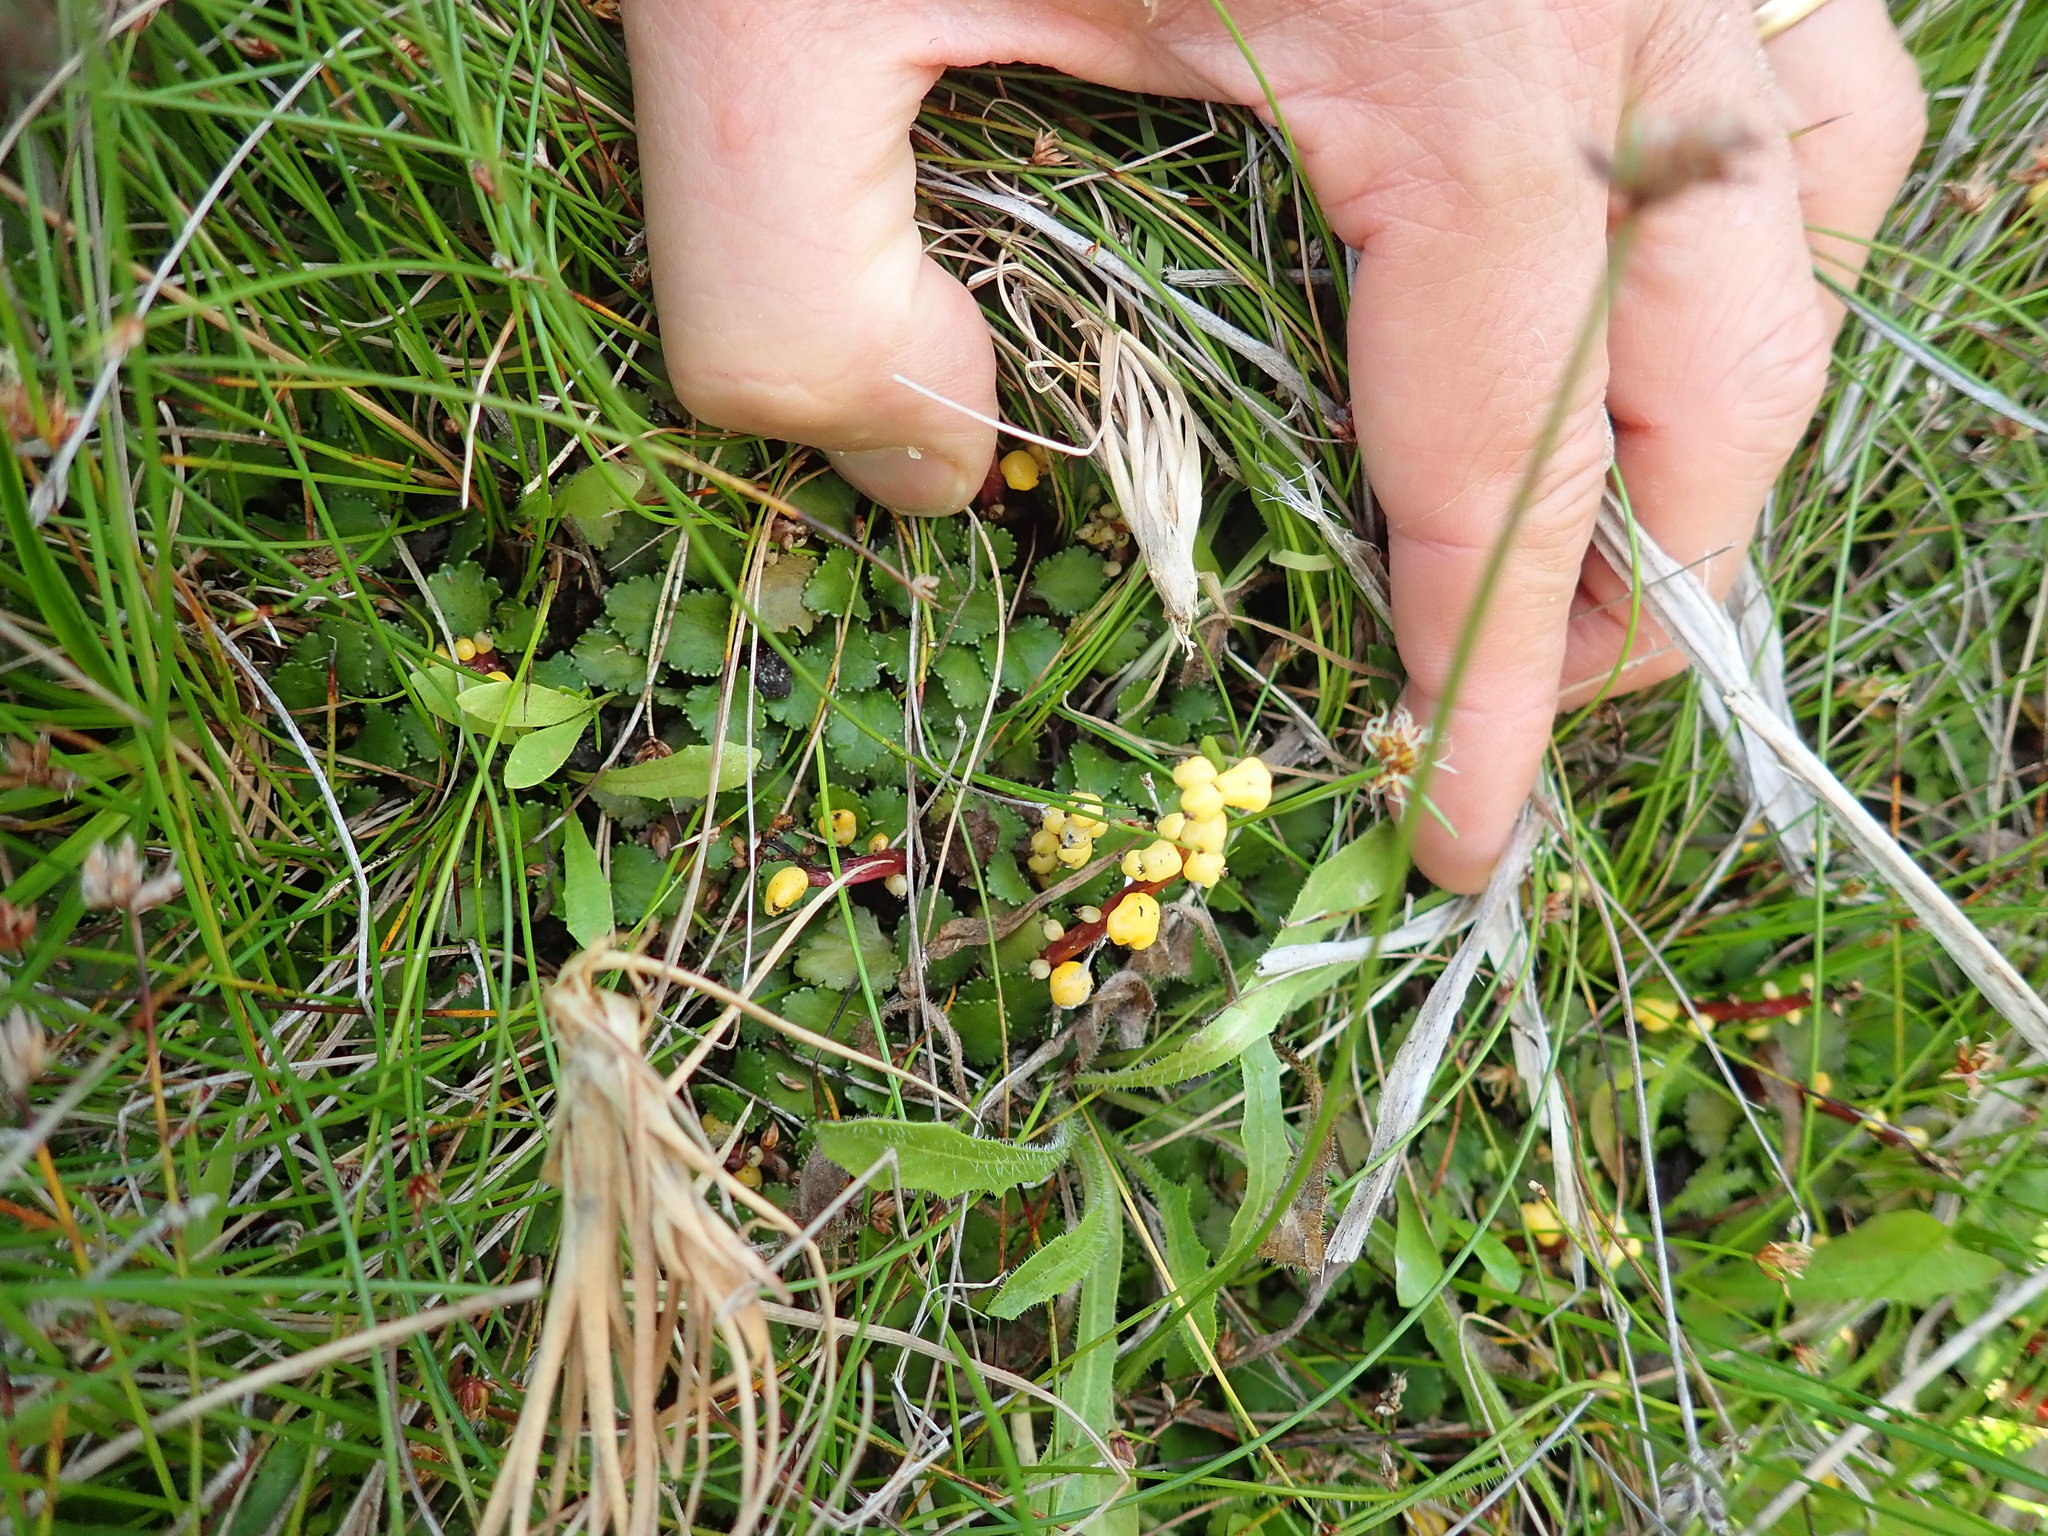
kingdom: Plantae
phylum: Tracheophyta
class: Magnoliopsida
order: Gunnerales
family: Gunneraceae
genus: Gunnera
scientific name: Gunnera dentata
